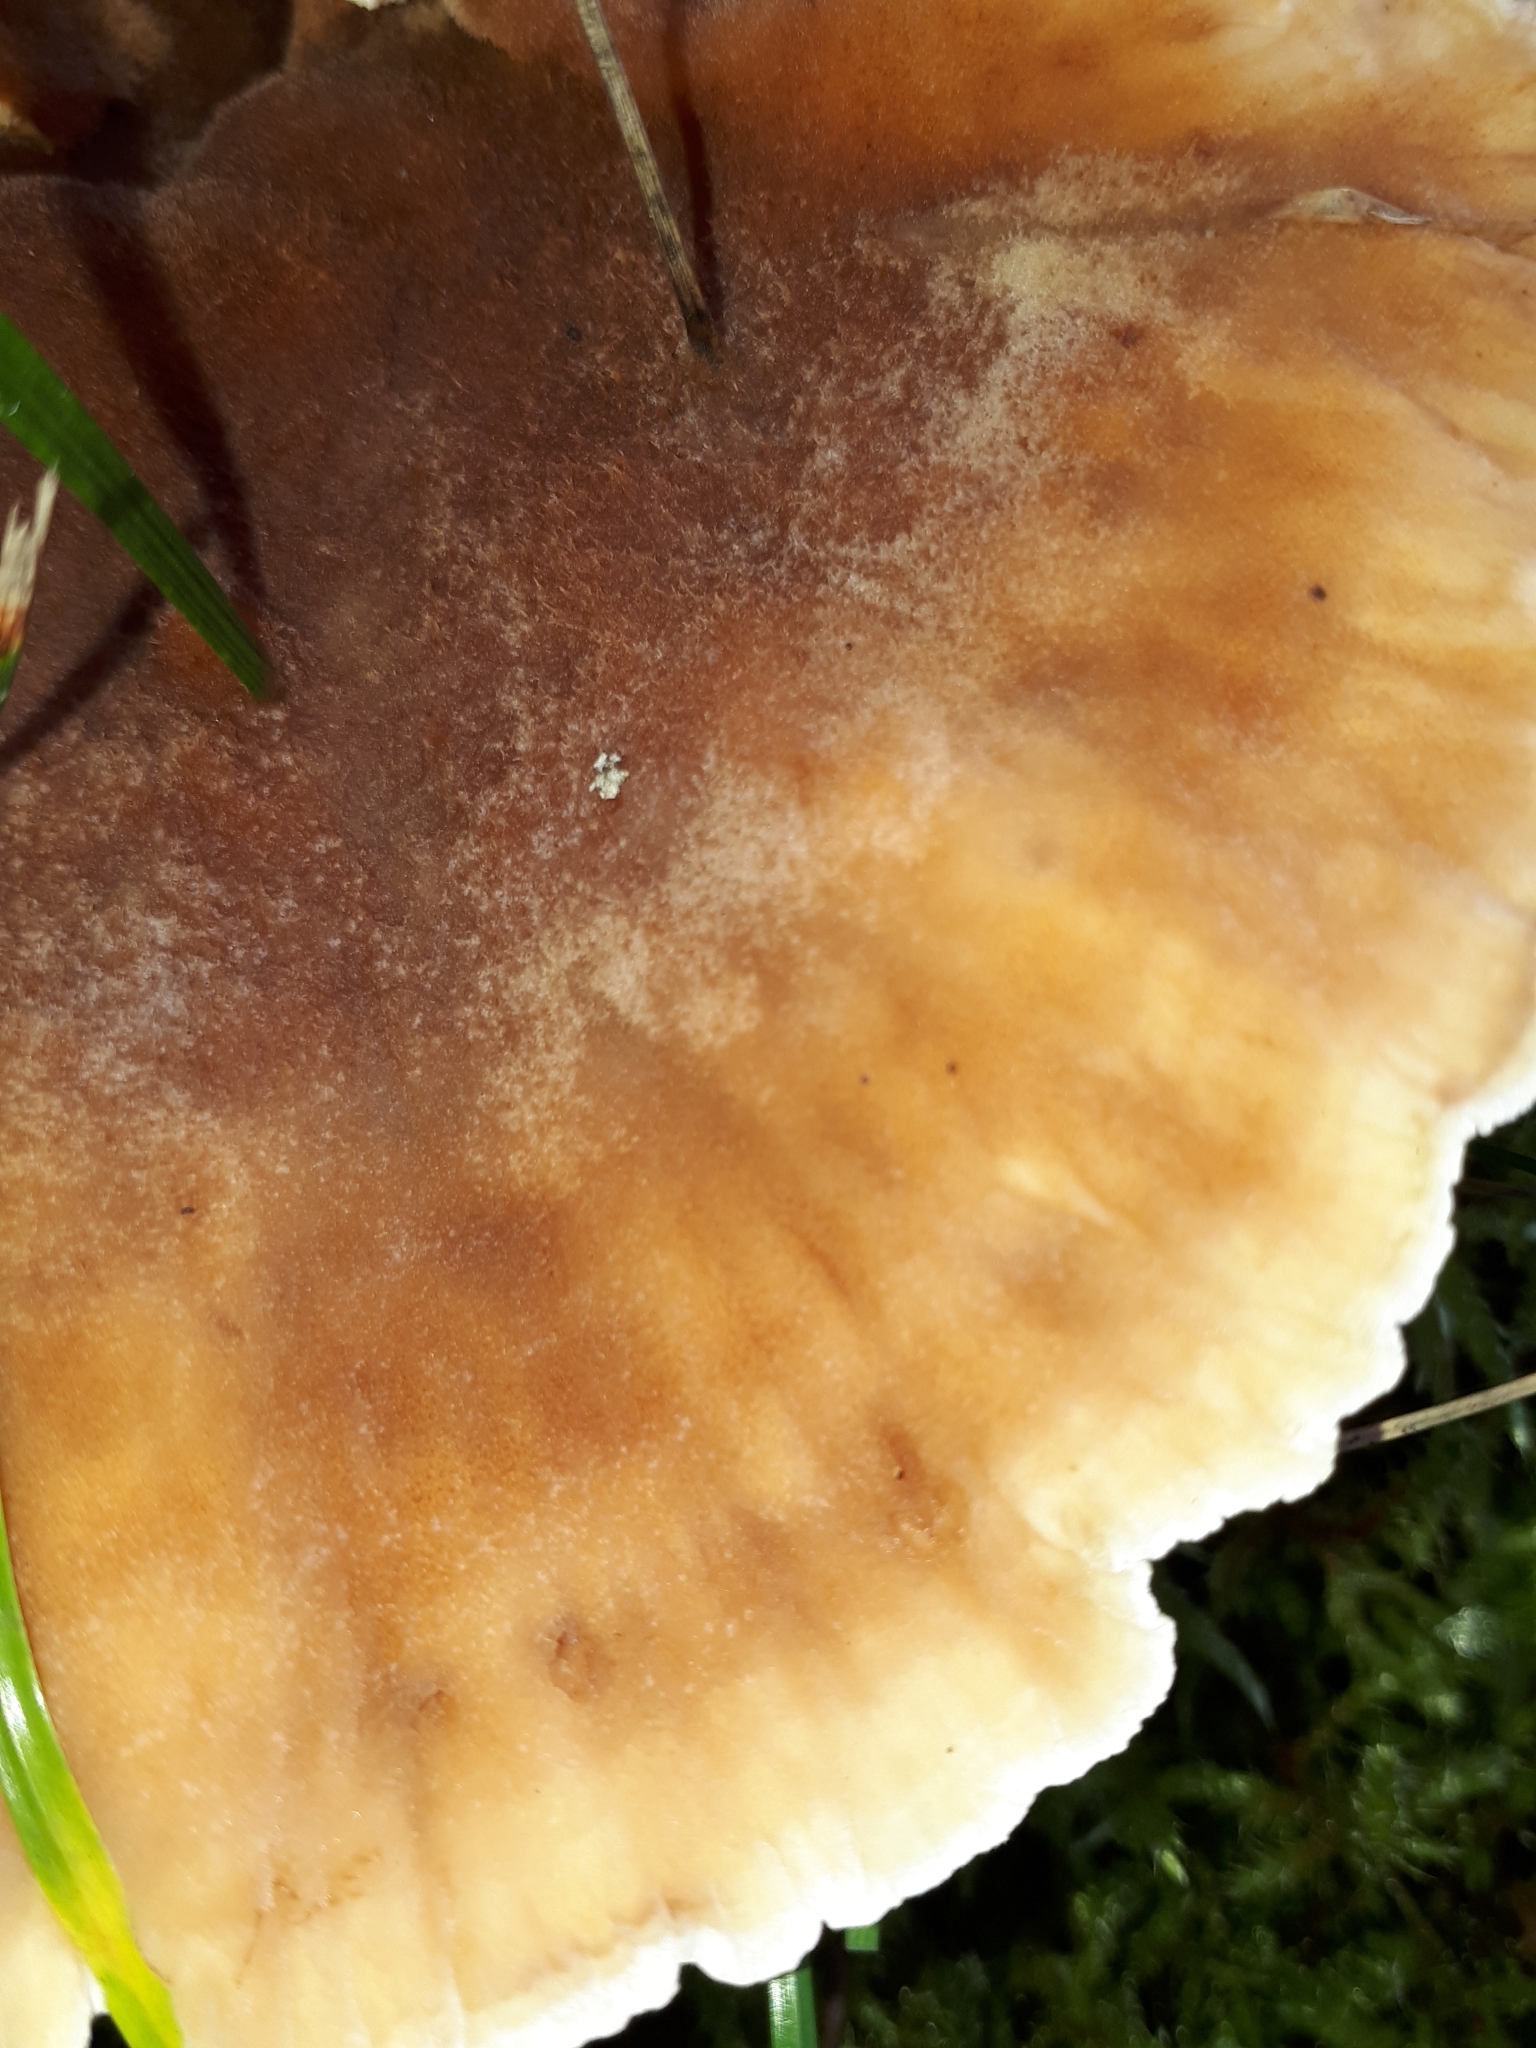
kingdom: Fungi
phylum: Basidiomycota
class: Agaricomycetes
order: Polyporales
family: Podoscyphaceae
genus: Abortiporus
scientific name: Abortiporus biennis
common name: Blushing rosette
